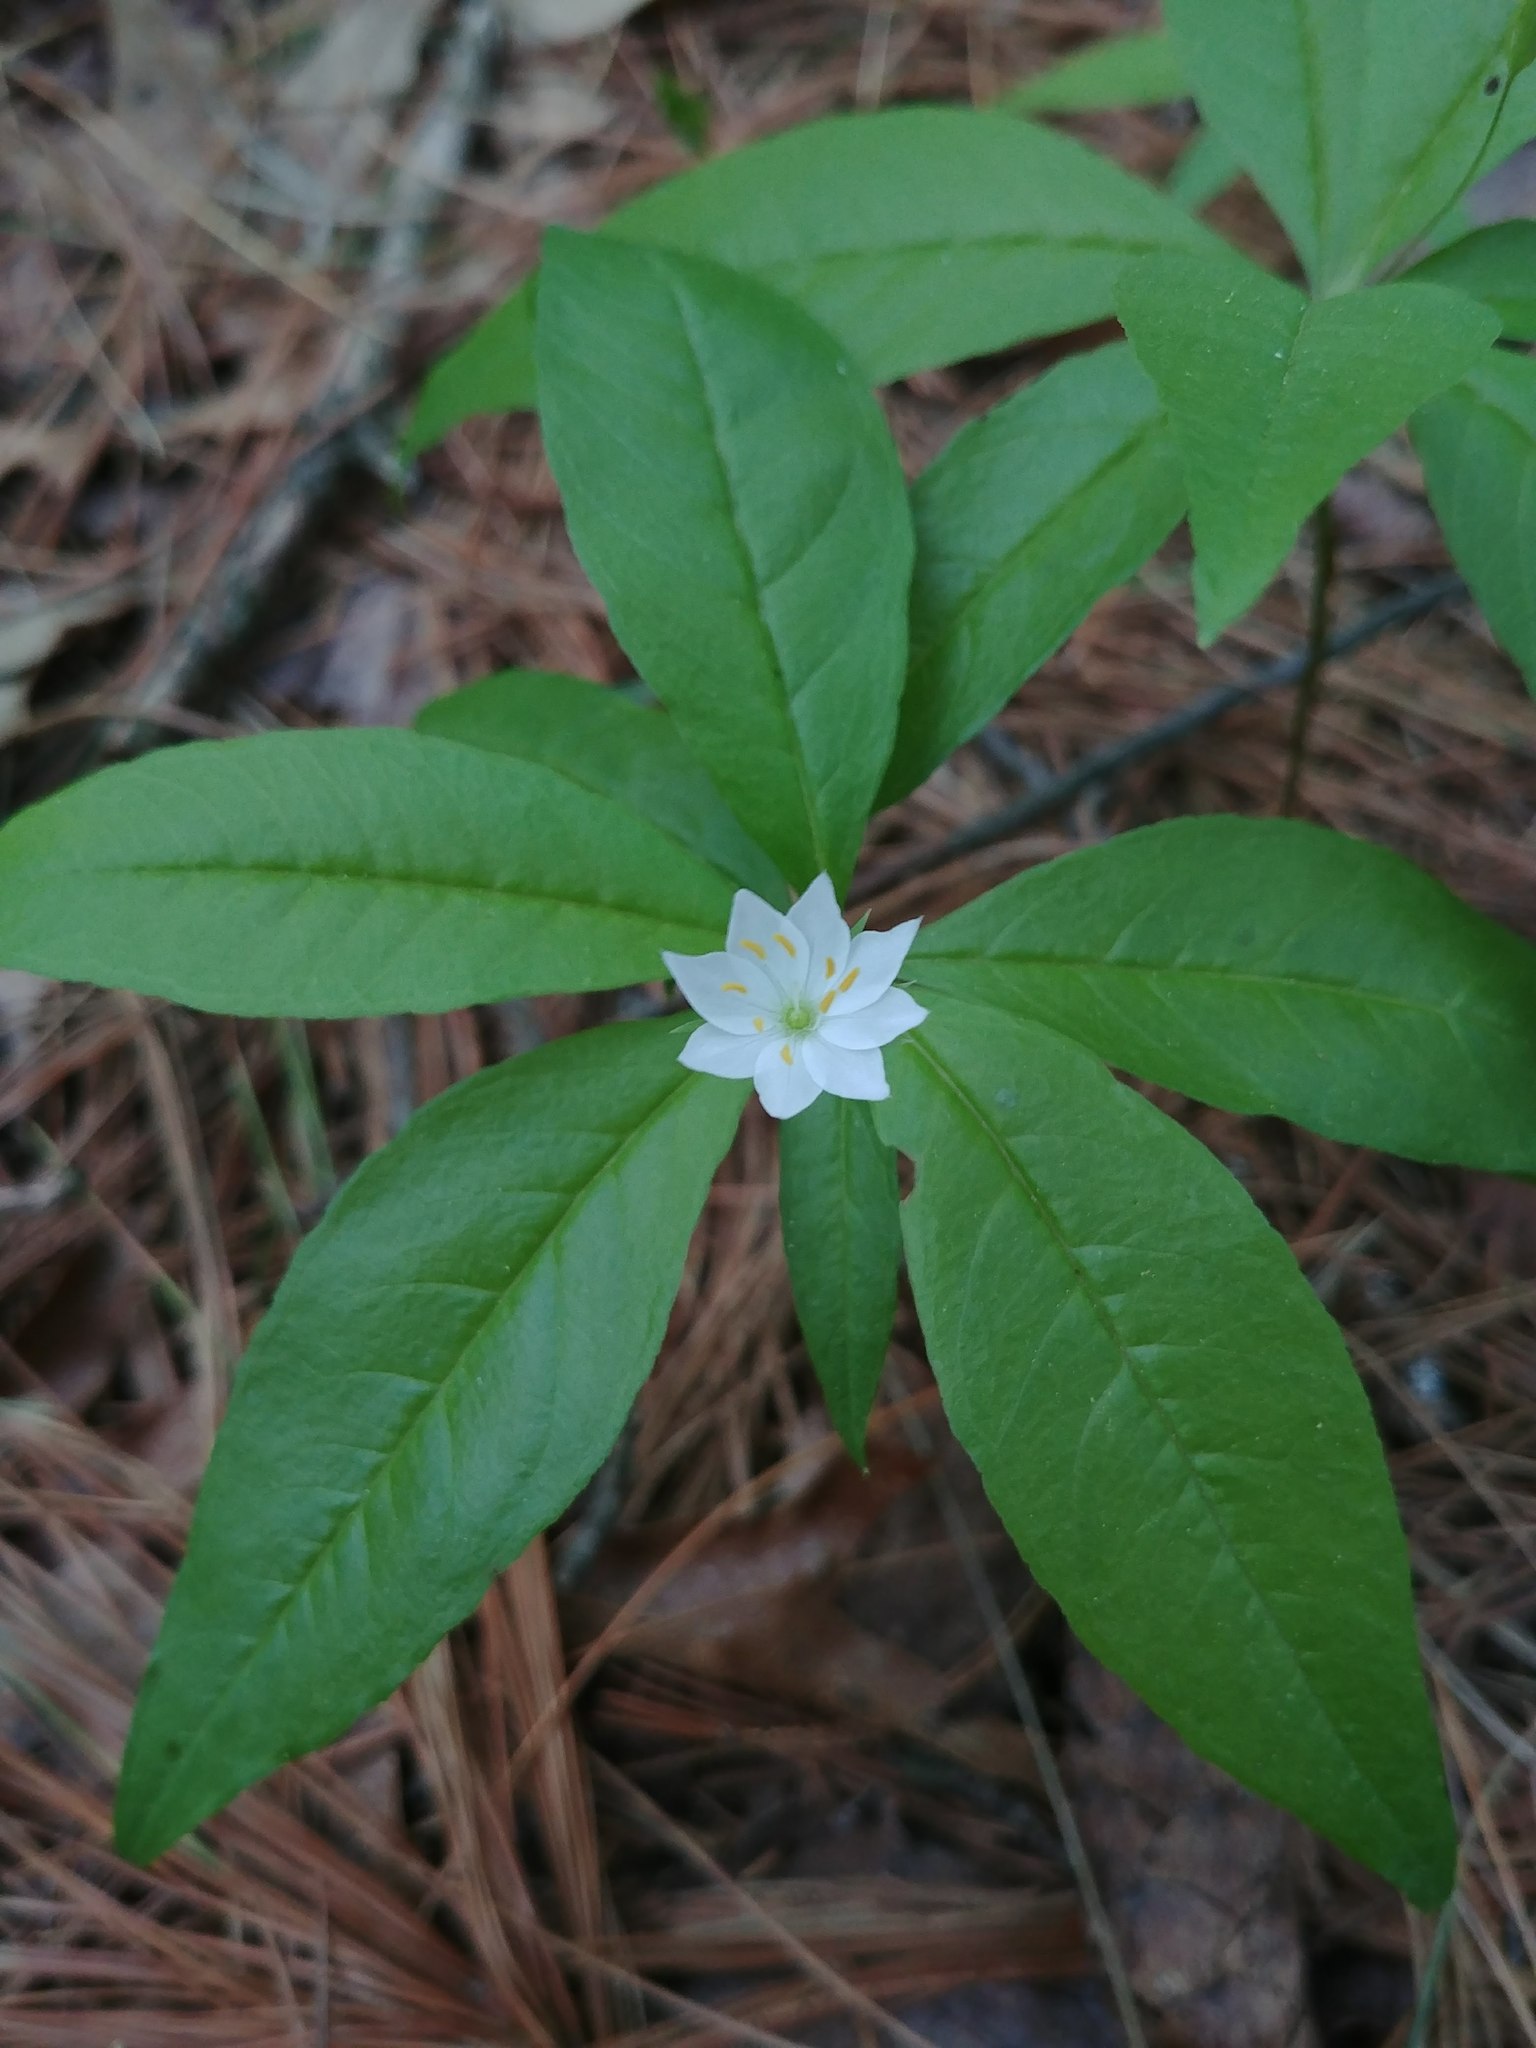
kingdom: Plantae
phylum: Tracheophyta
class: Magnoliopsida
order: Ericales
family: Primulaceae
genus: Lysimachia
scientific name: Lysimachia borealis
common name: American starflower
